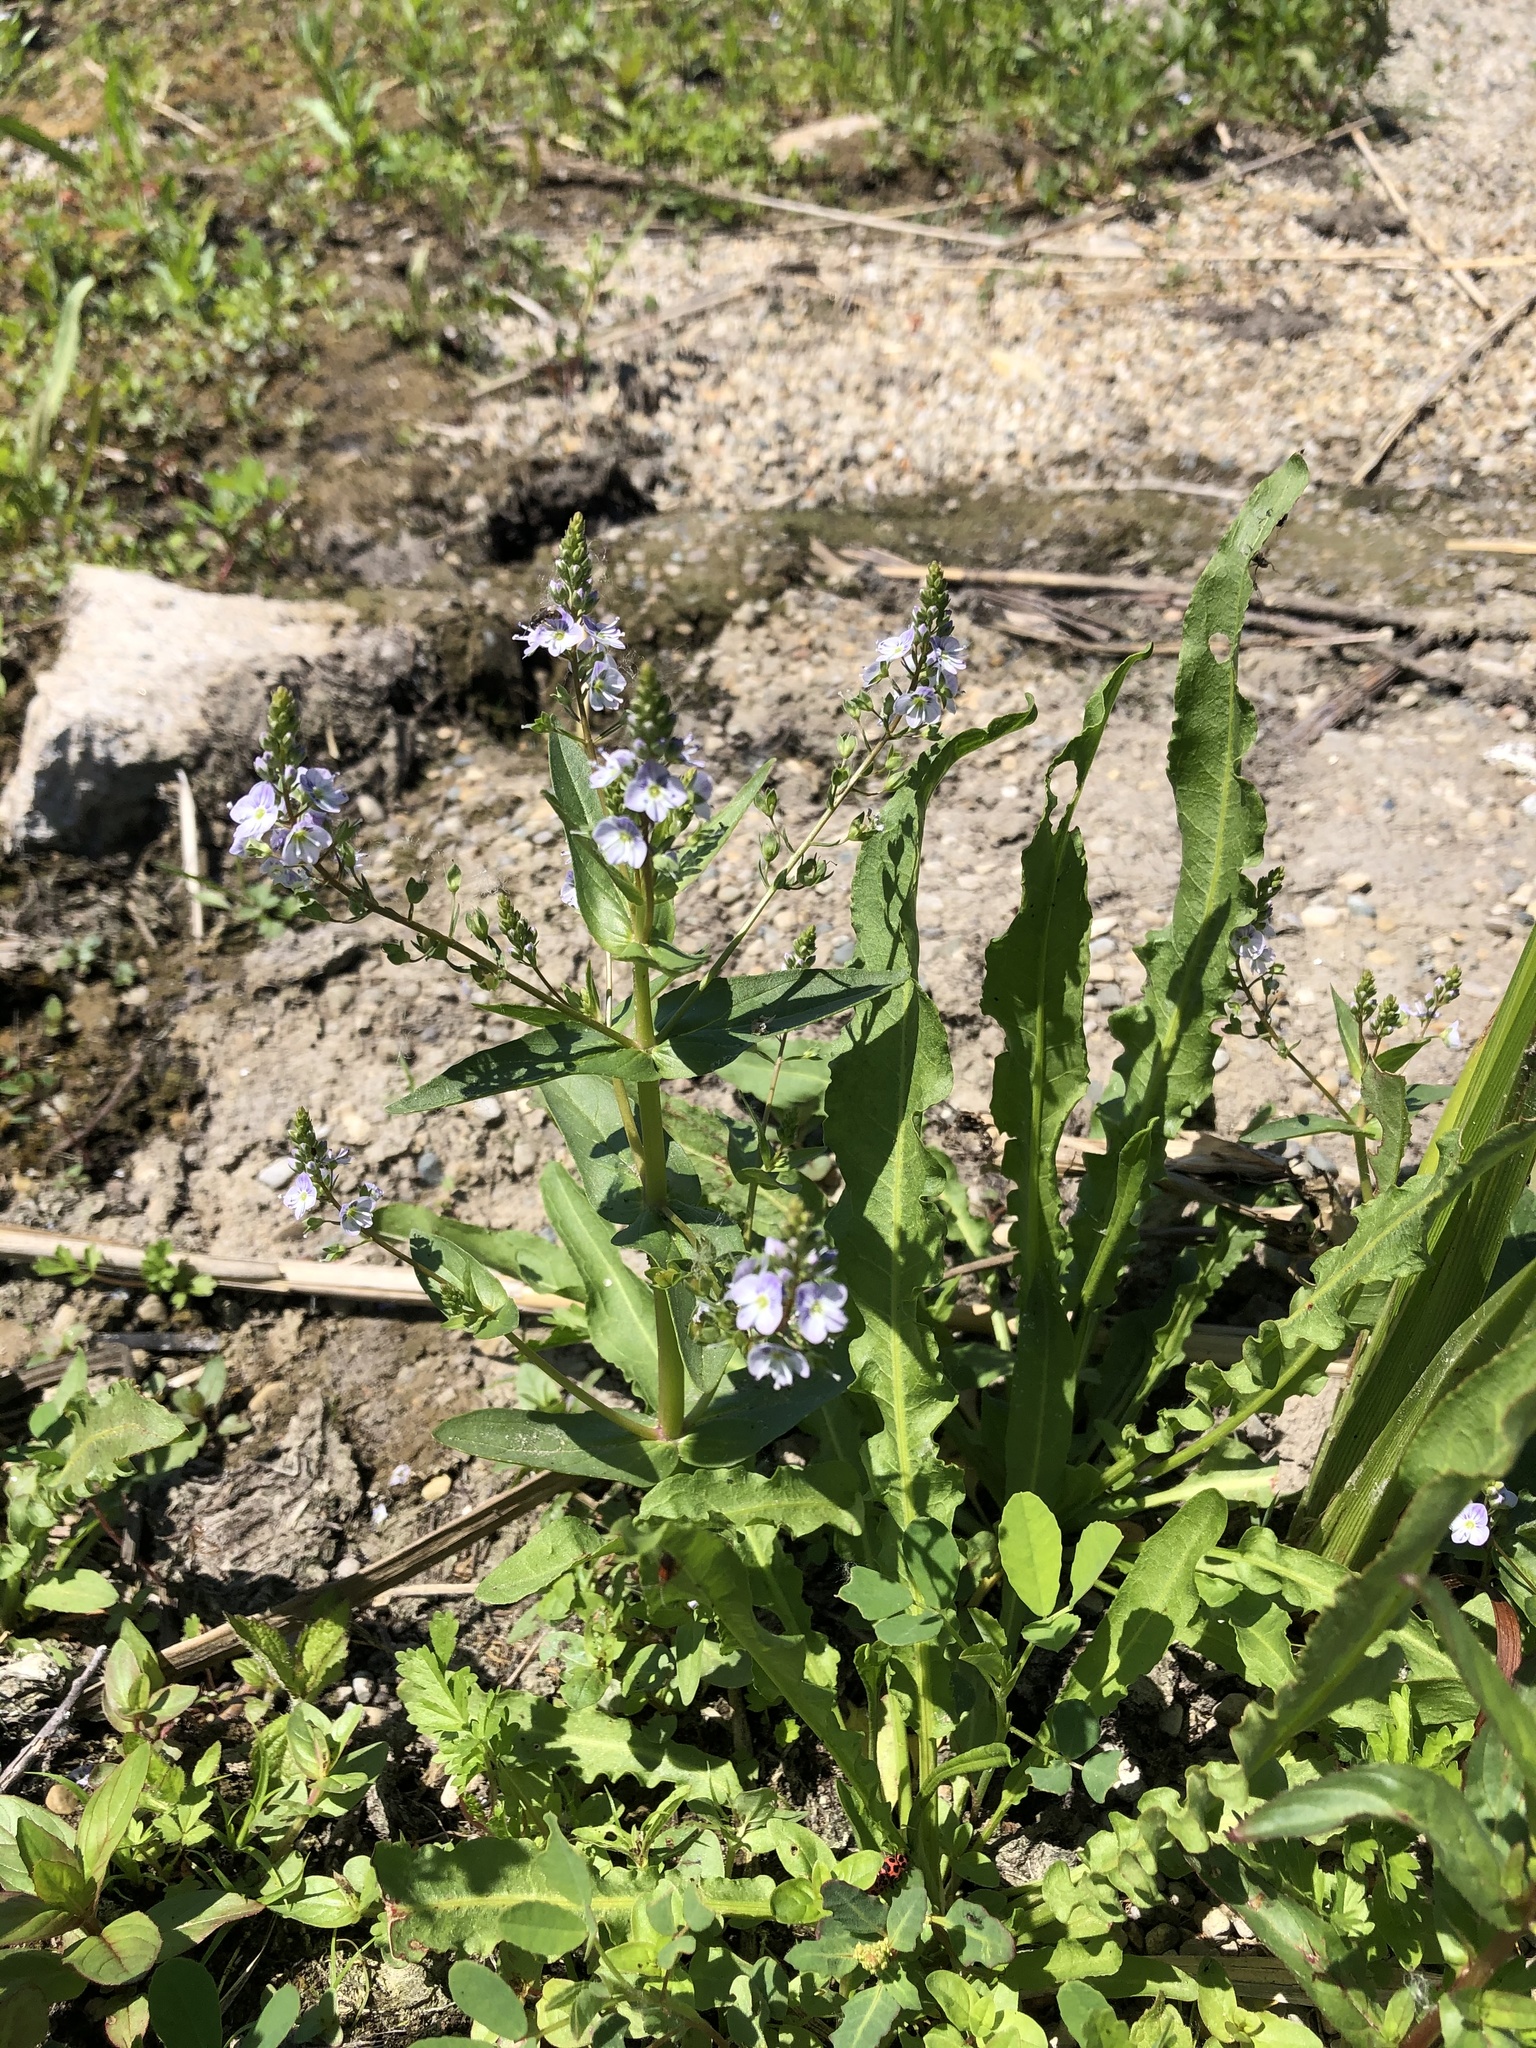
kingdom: Plantae
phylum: Tracheophyta
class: Magnoliopsida
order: Lamiales
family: Plantaginaceae
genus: Veronica
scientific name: Veronica anagallis-aquatica
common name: Water speedwell
